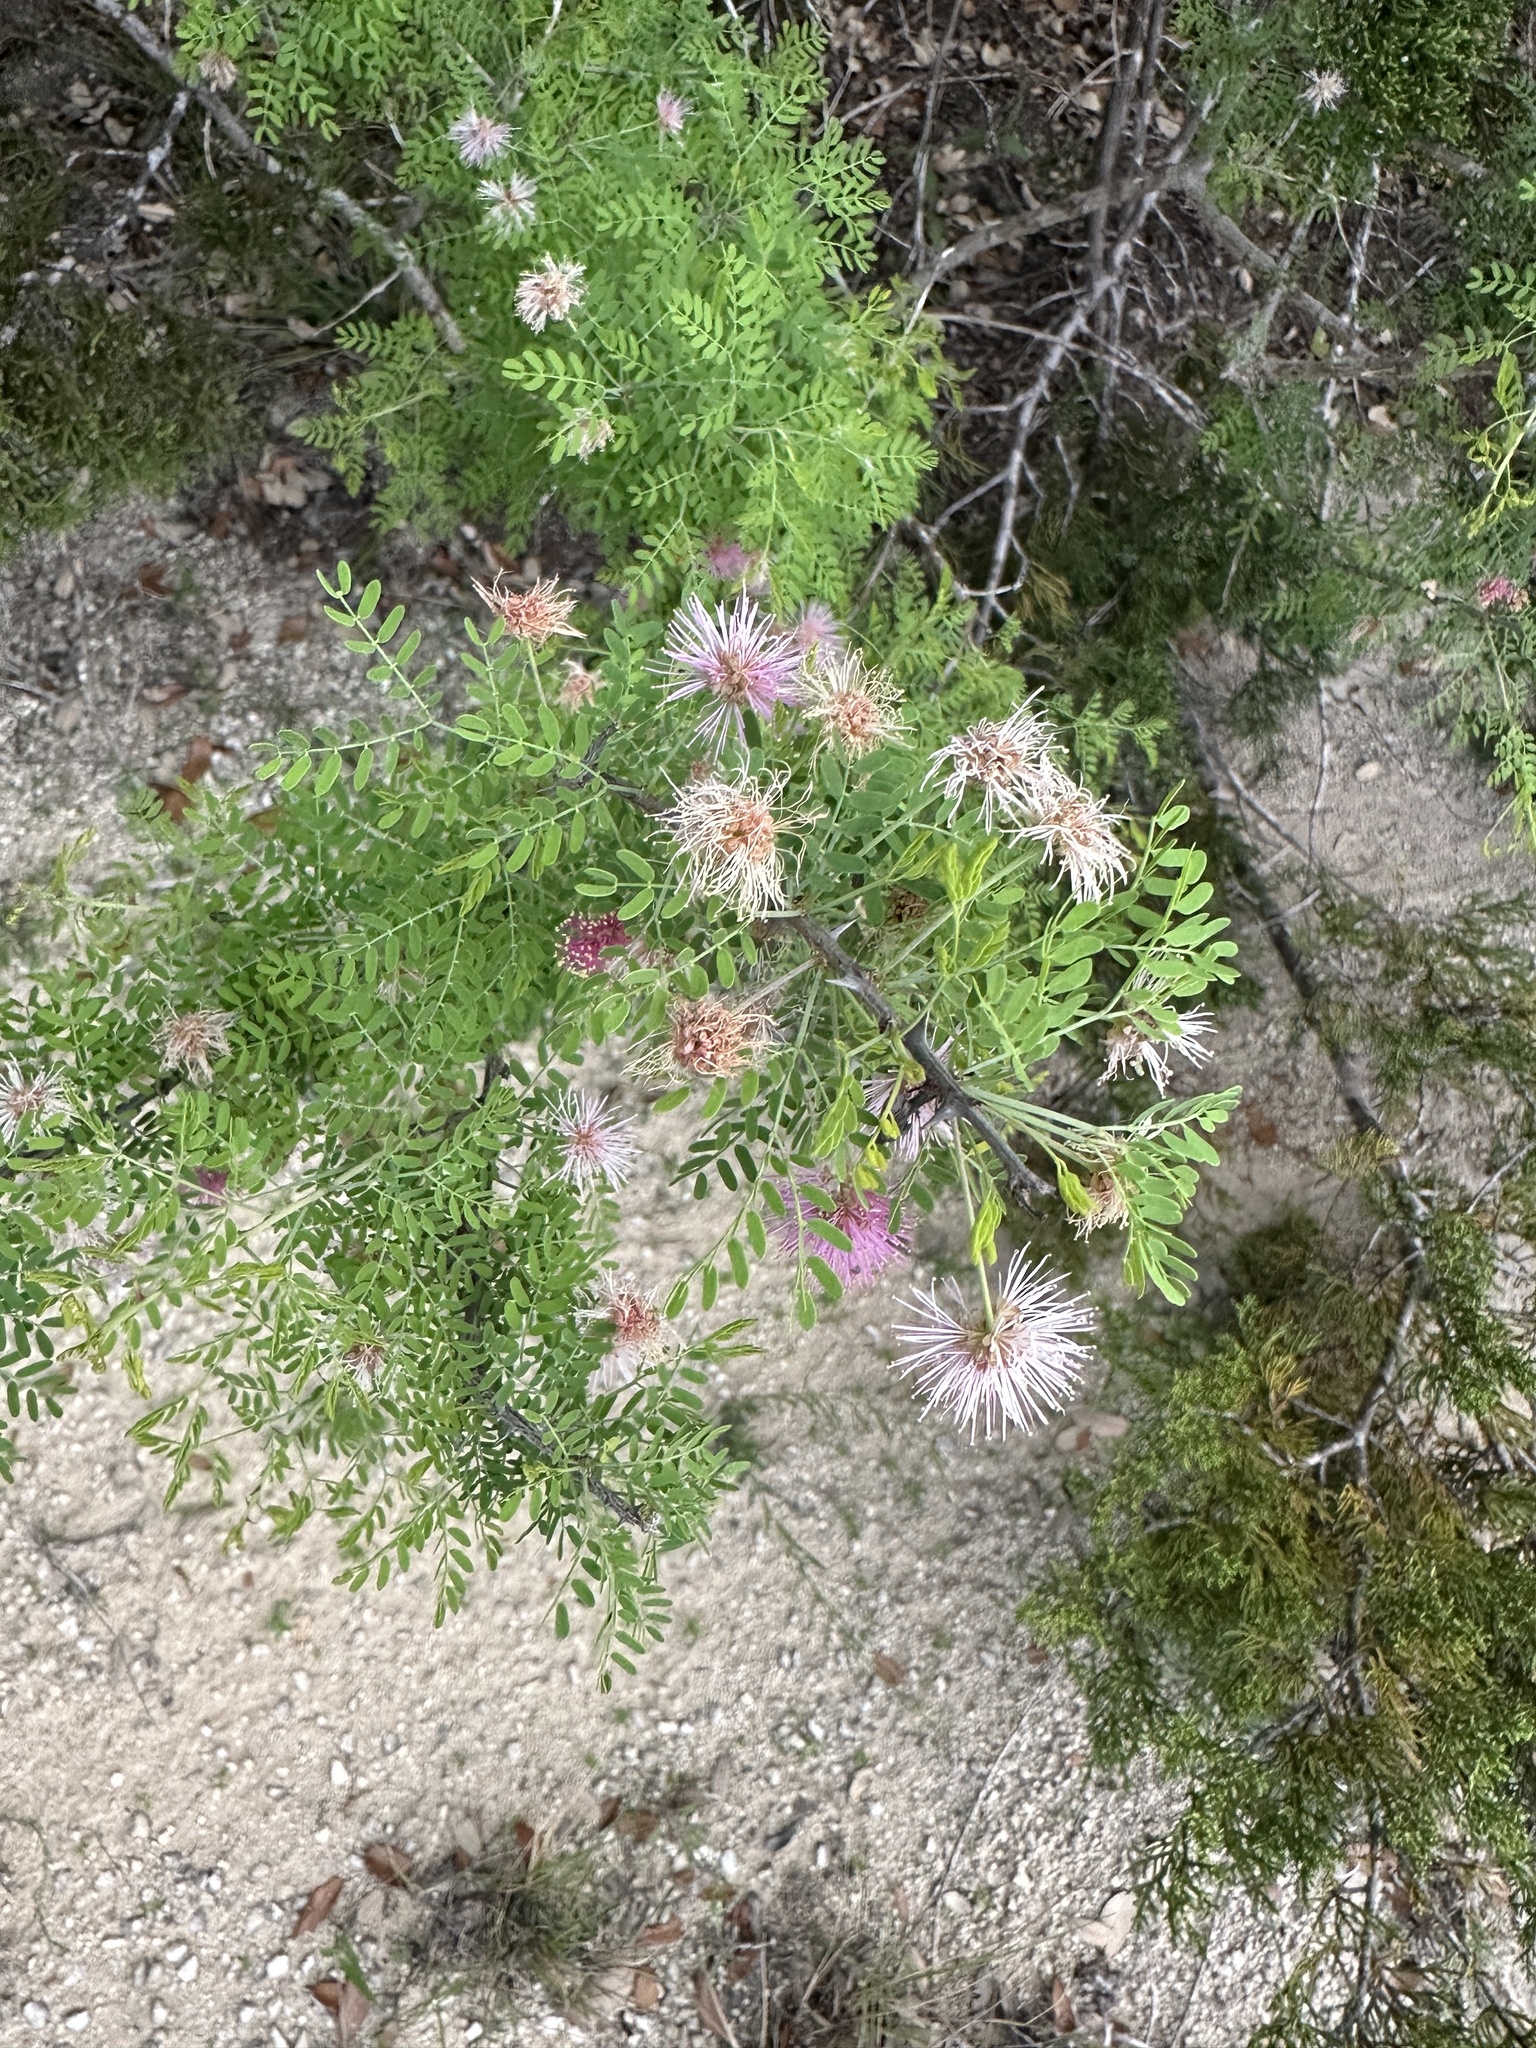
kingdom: Plantae
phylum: Tracheophyta
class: Magnoliopsida
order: Fabales
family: Fabaceae
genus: Mimosa
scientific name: Mimosa borealis
